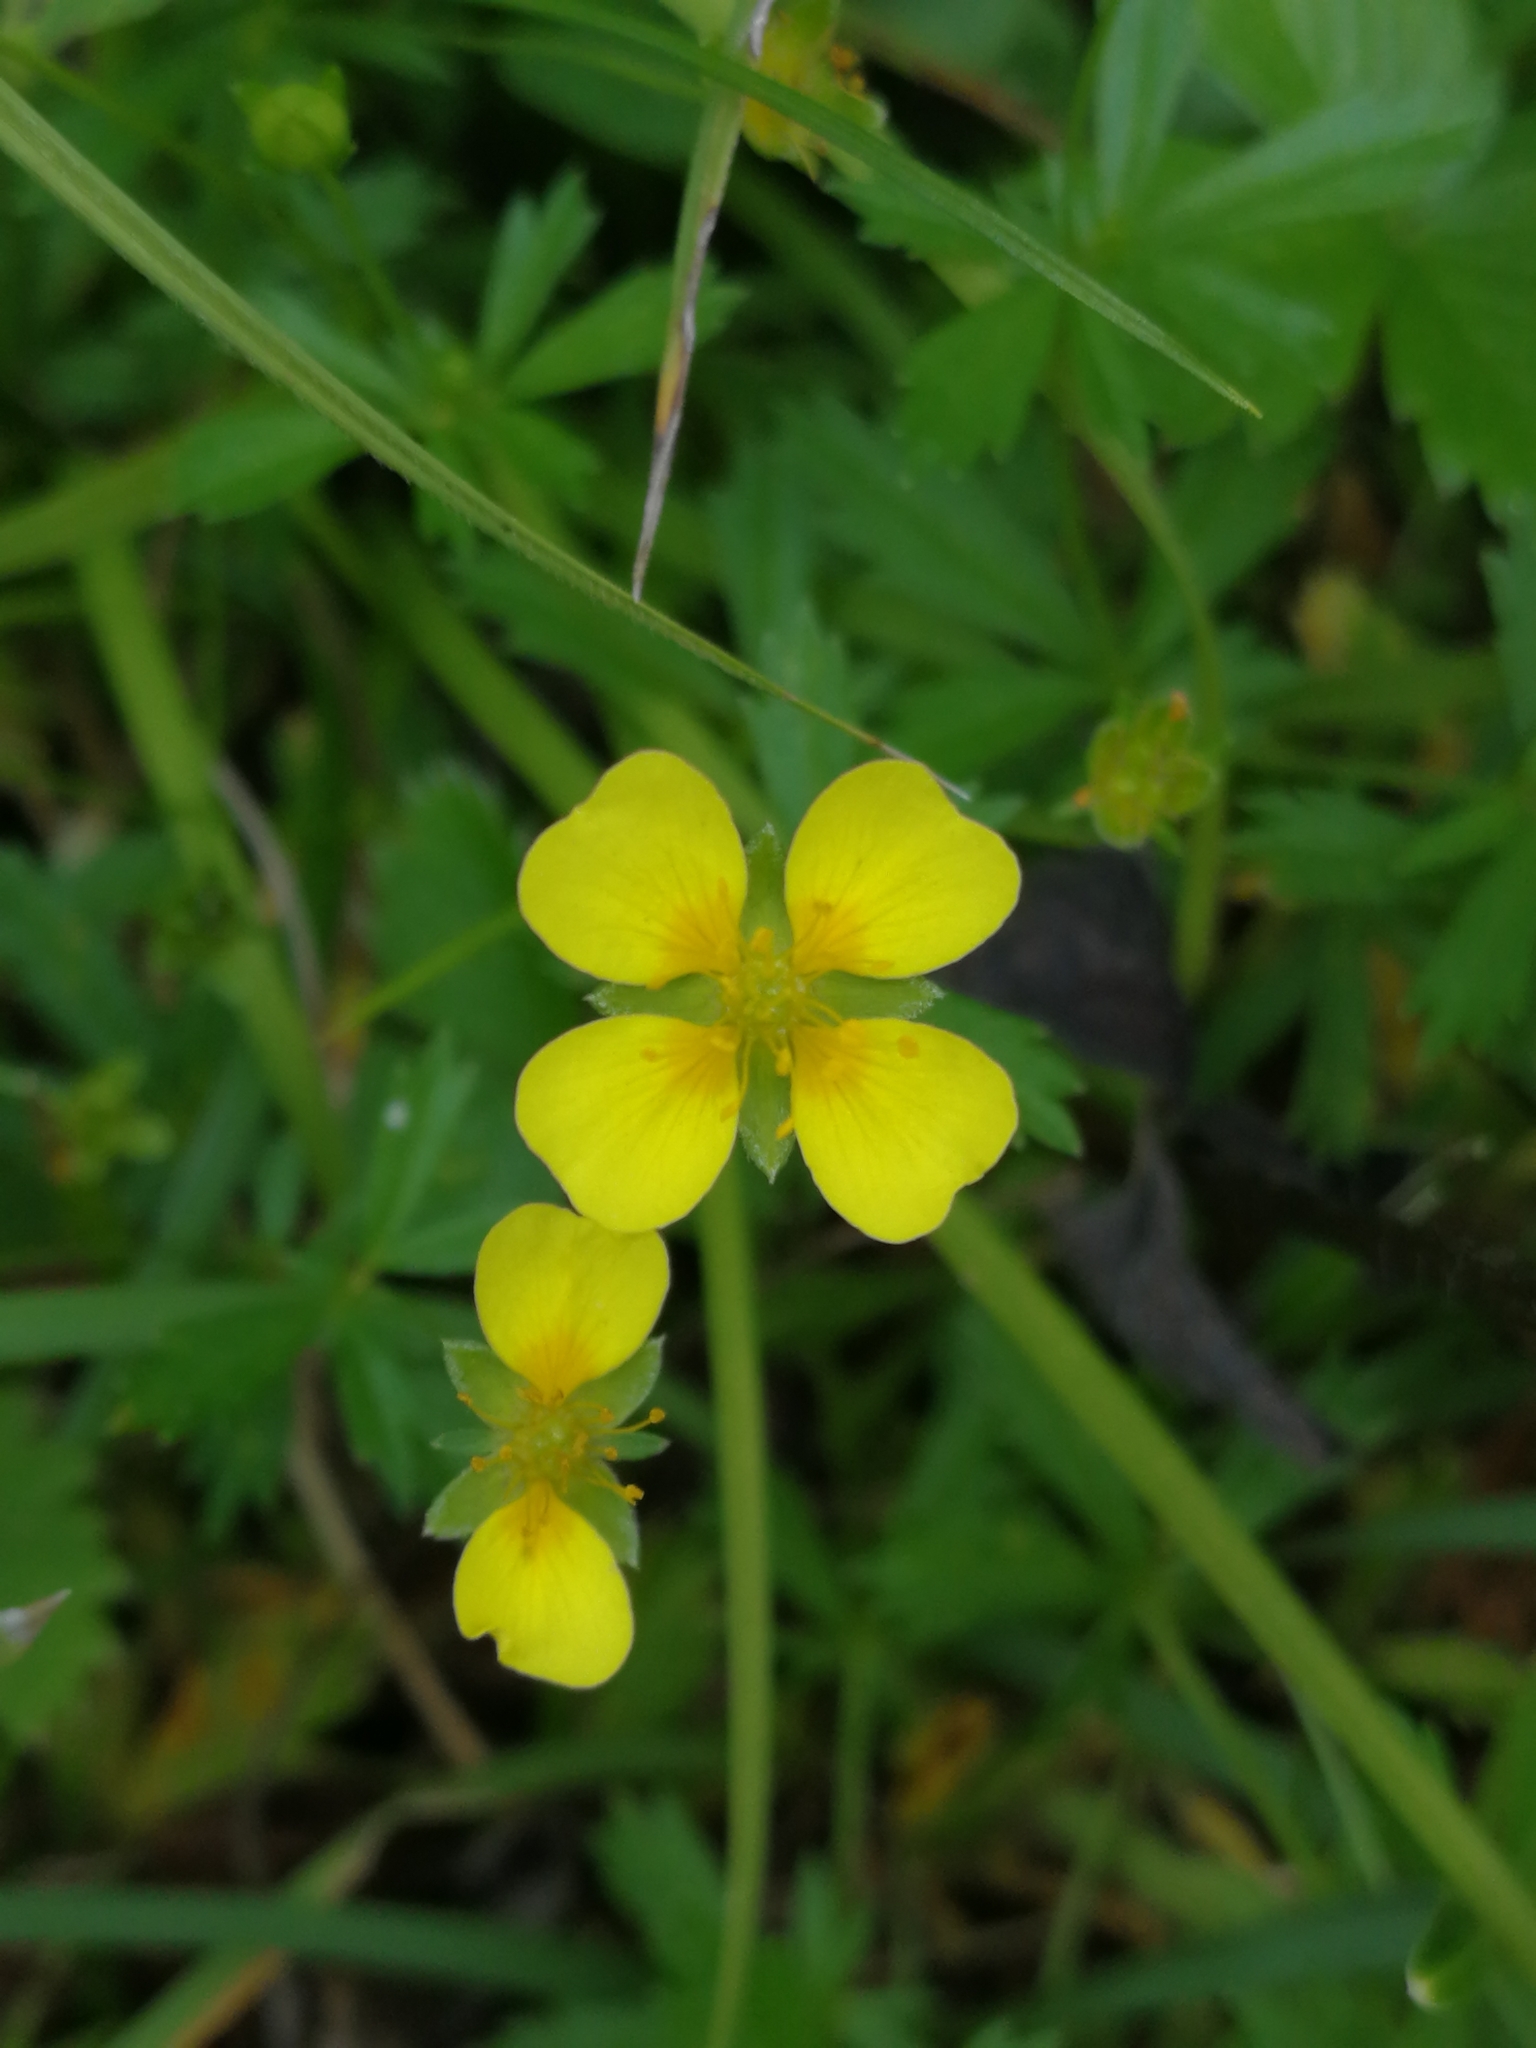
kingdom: Plantae
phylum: Tracheophyta
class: Magnoliopsida
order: Rosales
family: Rosaceae
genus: Potentilla
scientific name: Potentilla erecta
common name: Tormentil
